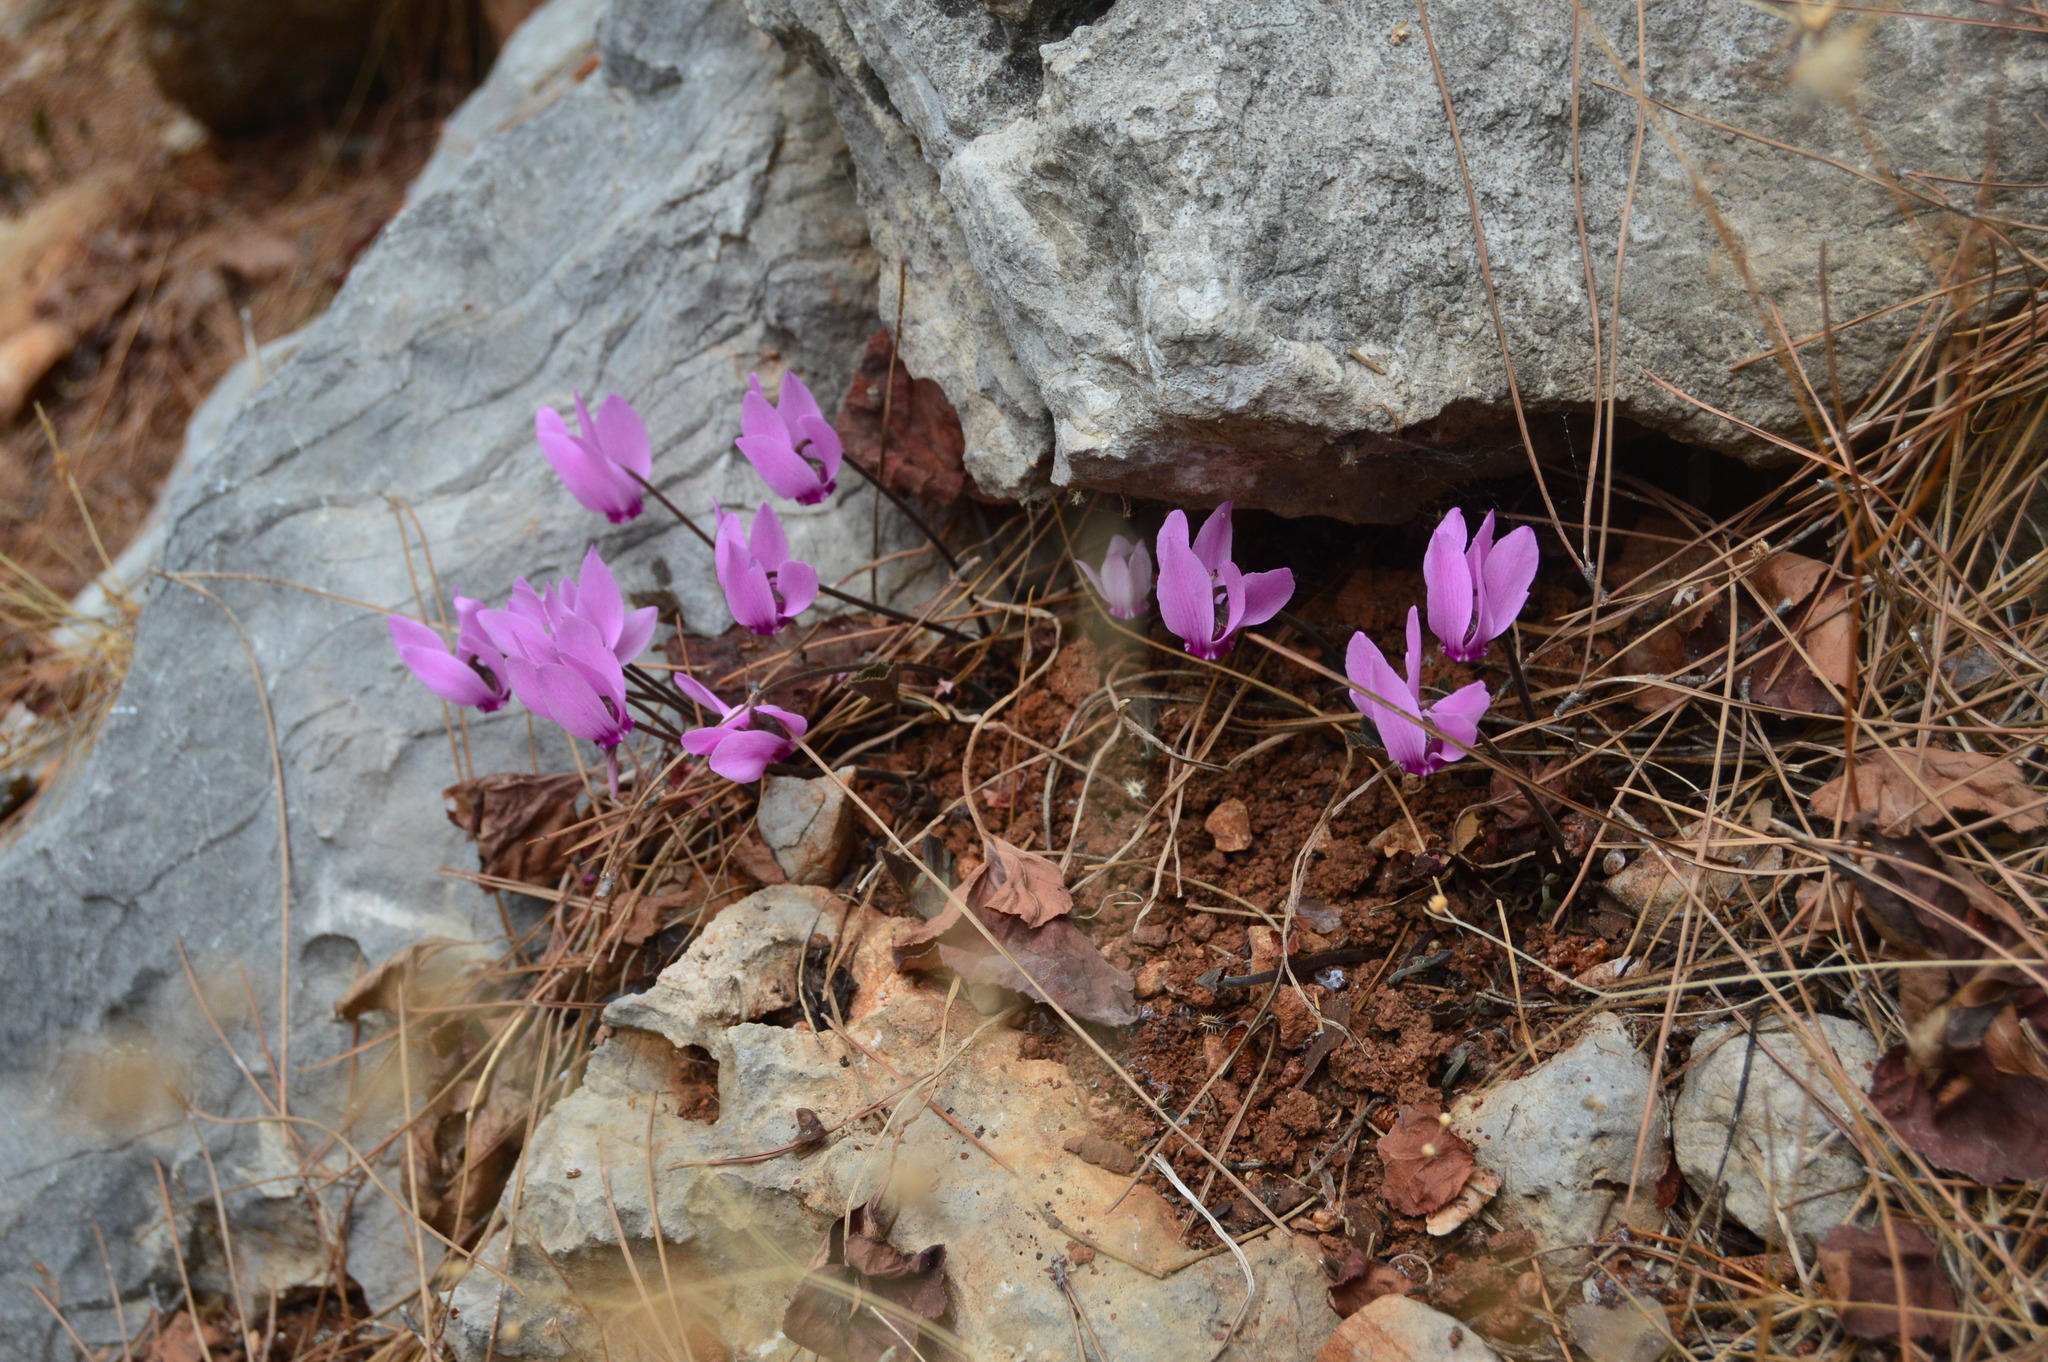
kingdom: Plantae
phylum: Tracheophyta
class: Magnoliopsida
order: Ericales
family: Primulaceae
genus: Cyclamen
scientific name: Cyclamen graecum
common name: Greek cyclamen
